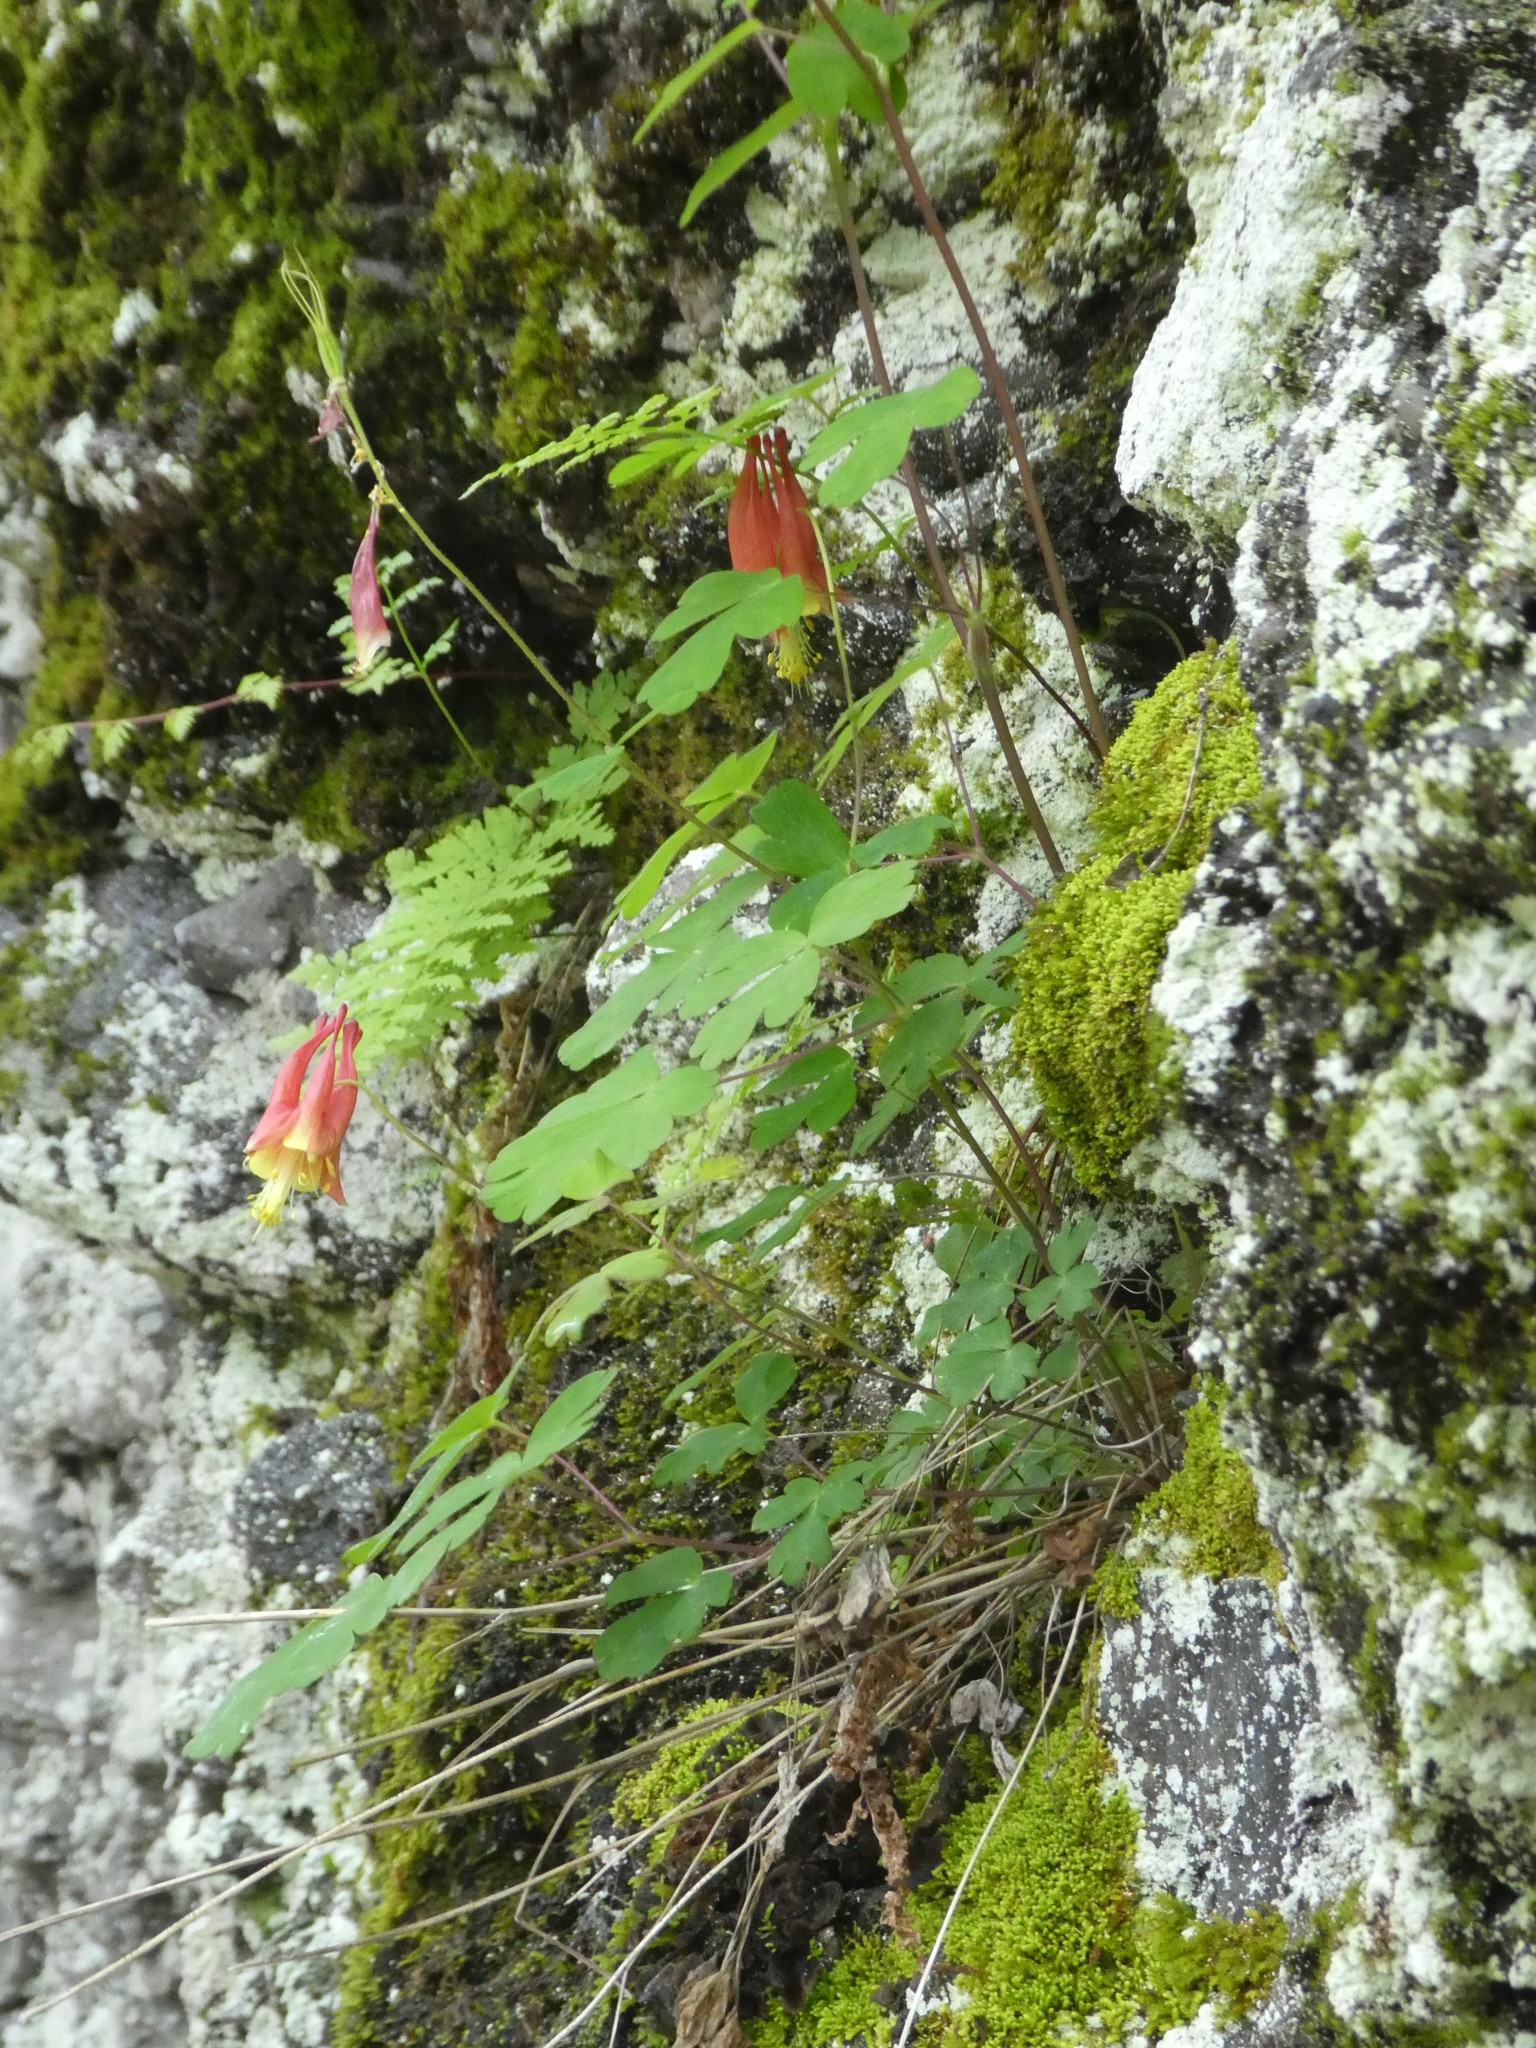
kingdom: Plantae
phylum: Tracheophyta
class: Magnoliopsida
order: Ranunculales
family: Ranunculaceae
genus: Aquilegia
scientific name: Aquilegia canadensis
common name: American columbine
